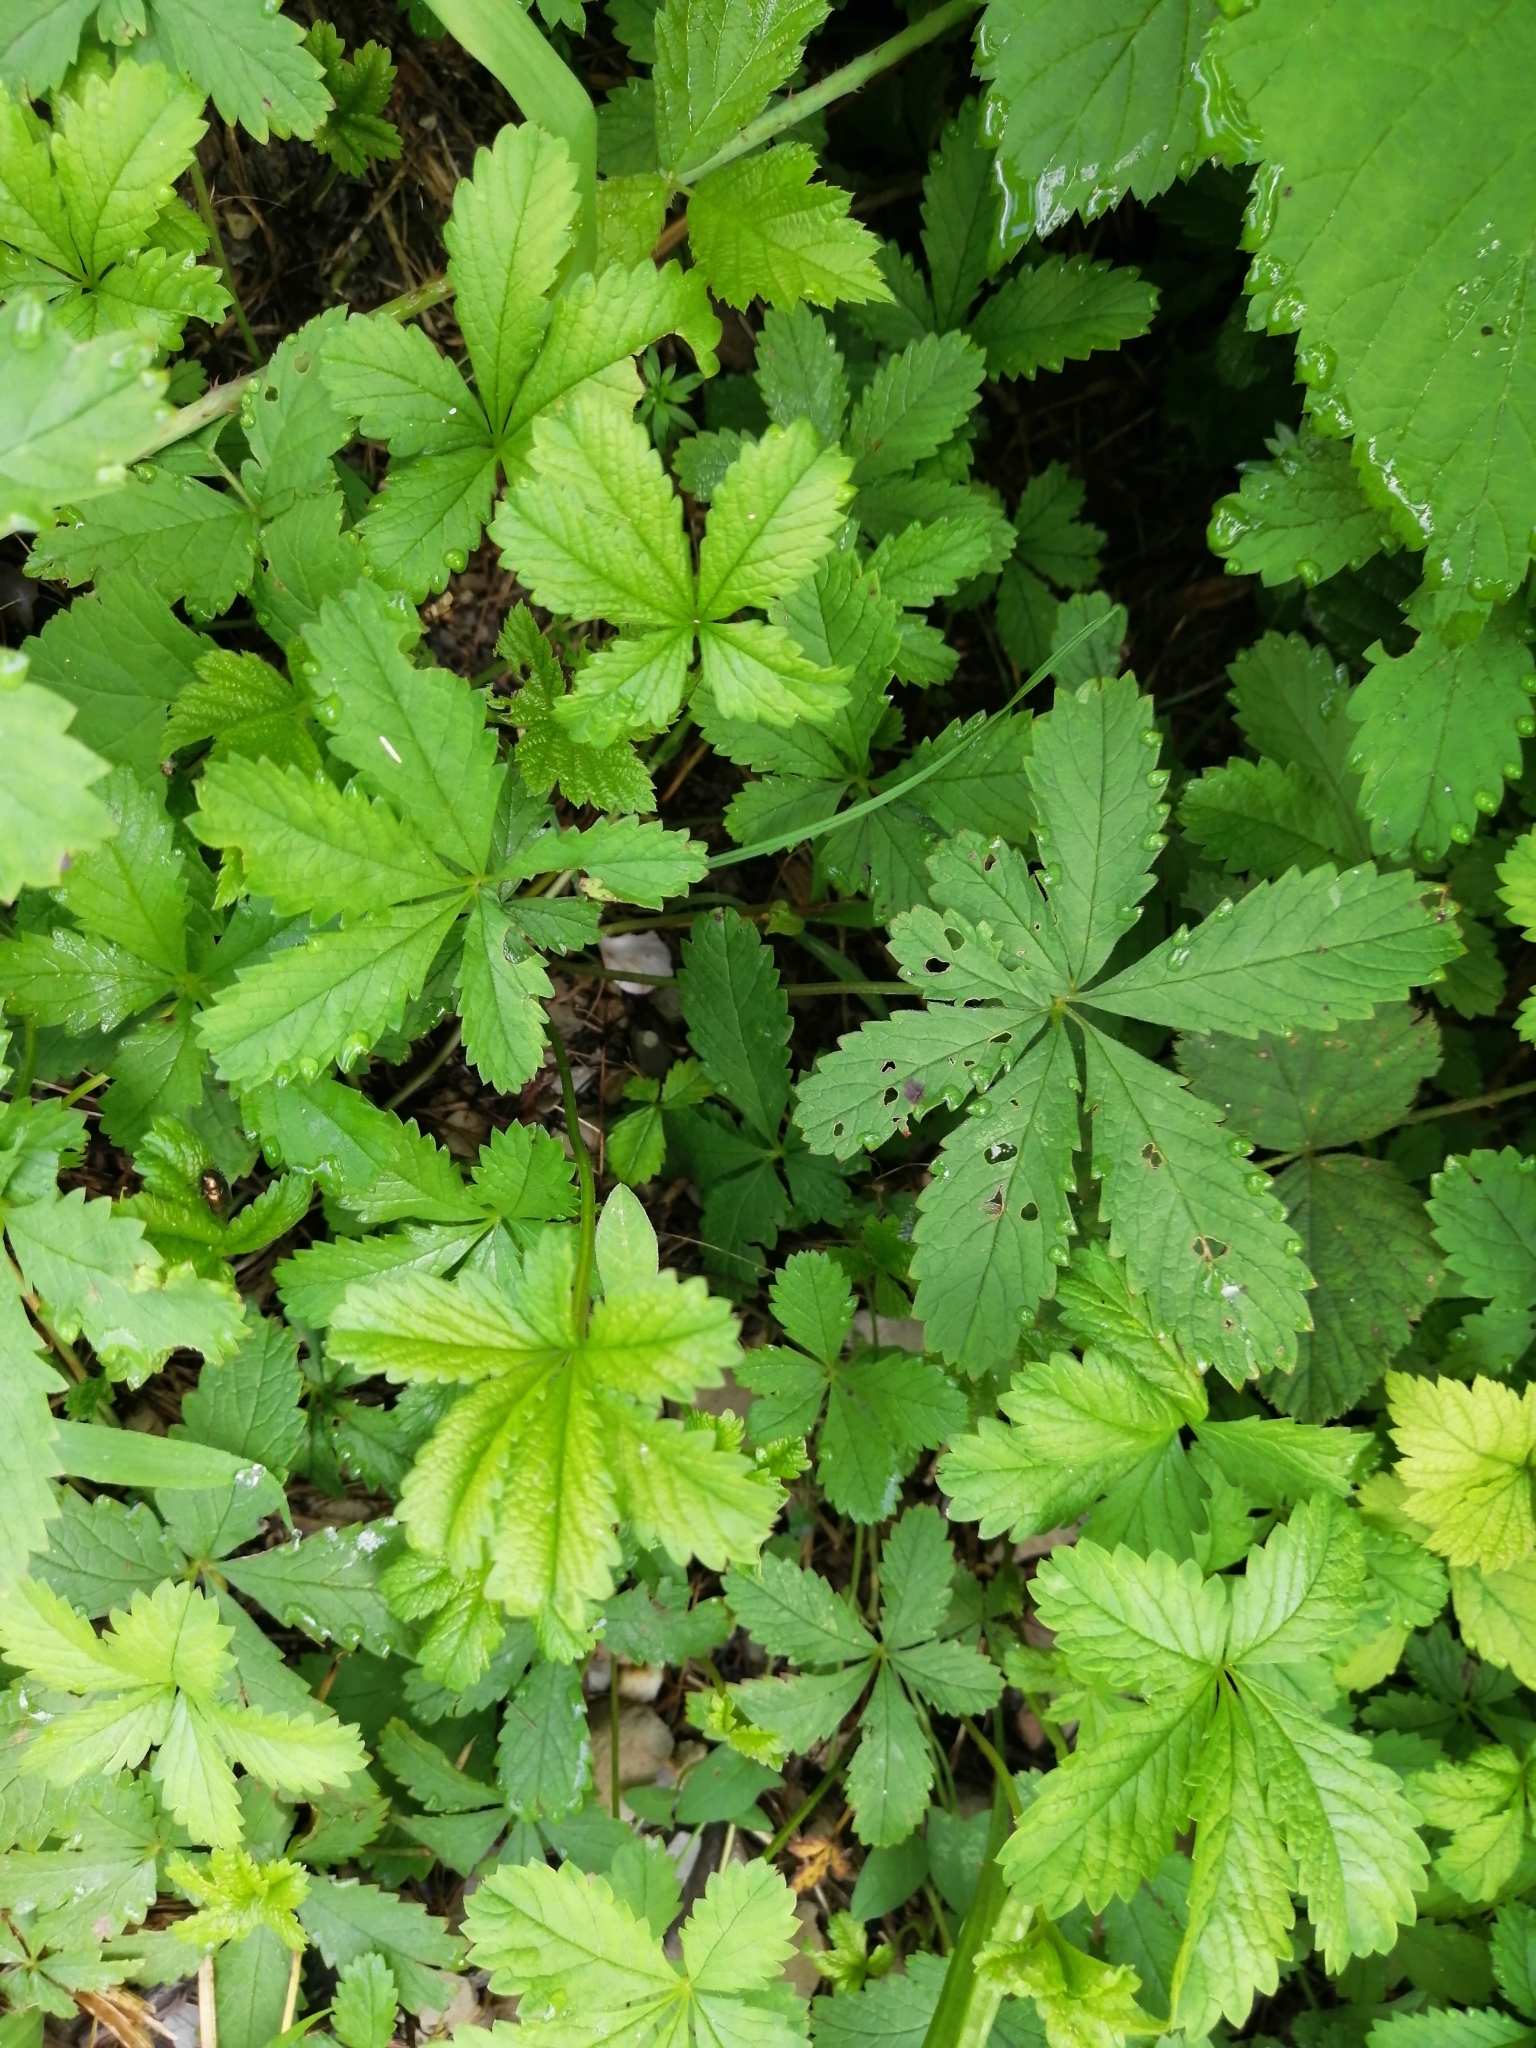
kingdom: Plantae
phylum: Tracheophyta
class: Magnoliopsida
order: Rosales
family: Rosaceae
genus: Potentilla
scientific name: Potentilla reptans
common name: Creeping cinquefoil
